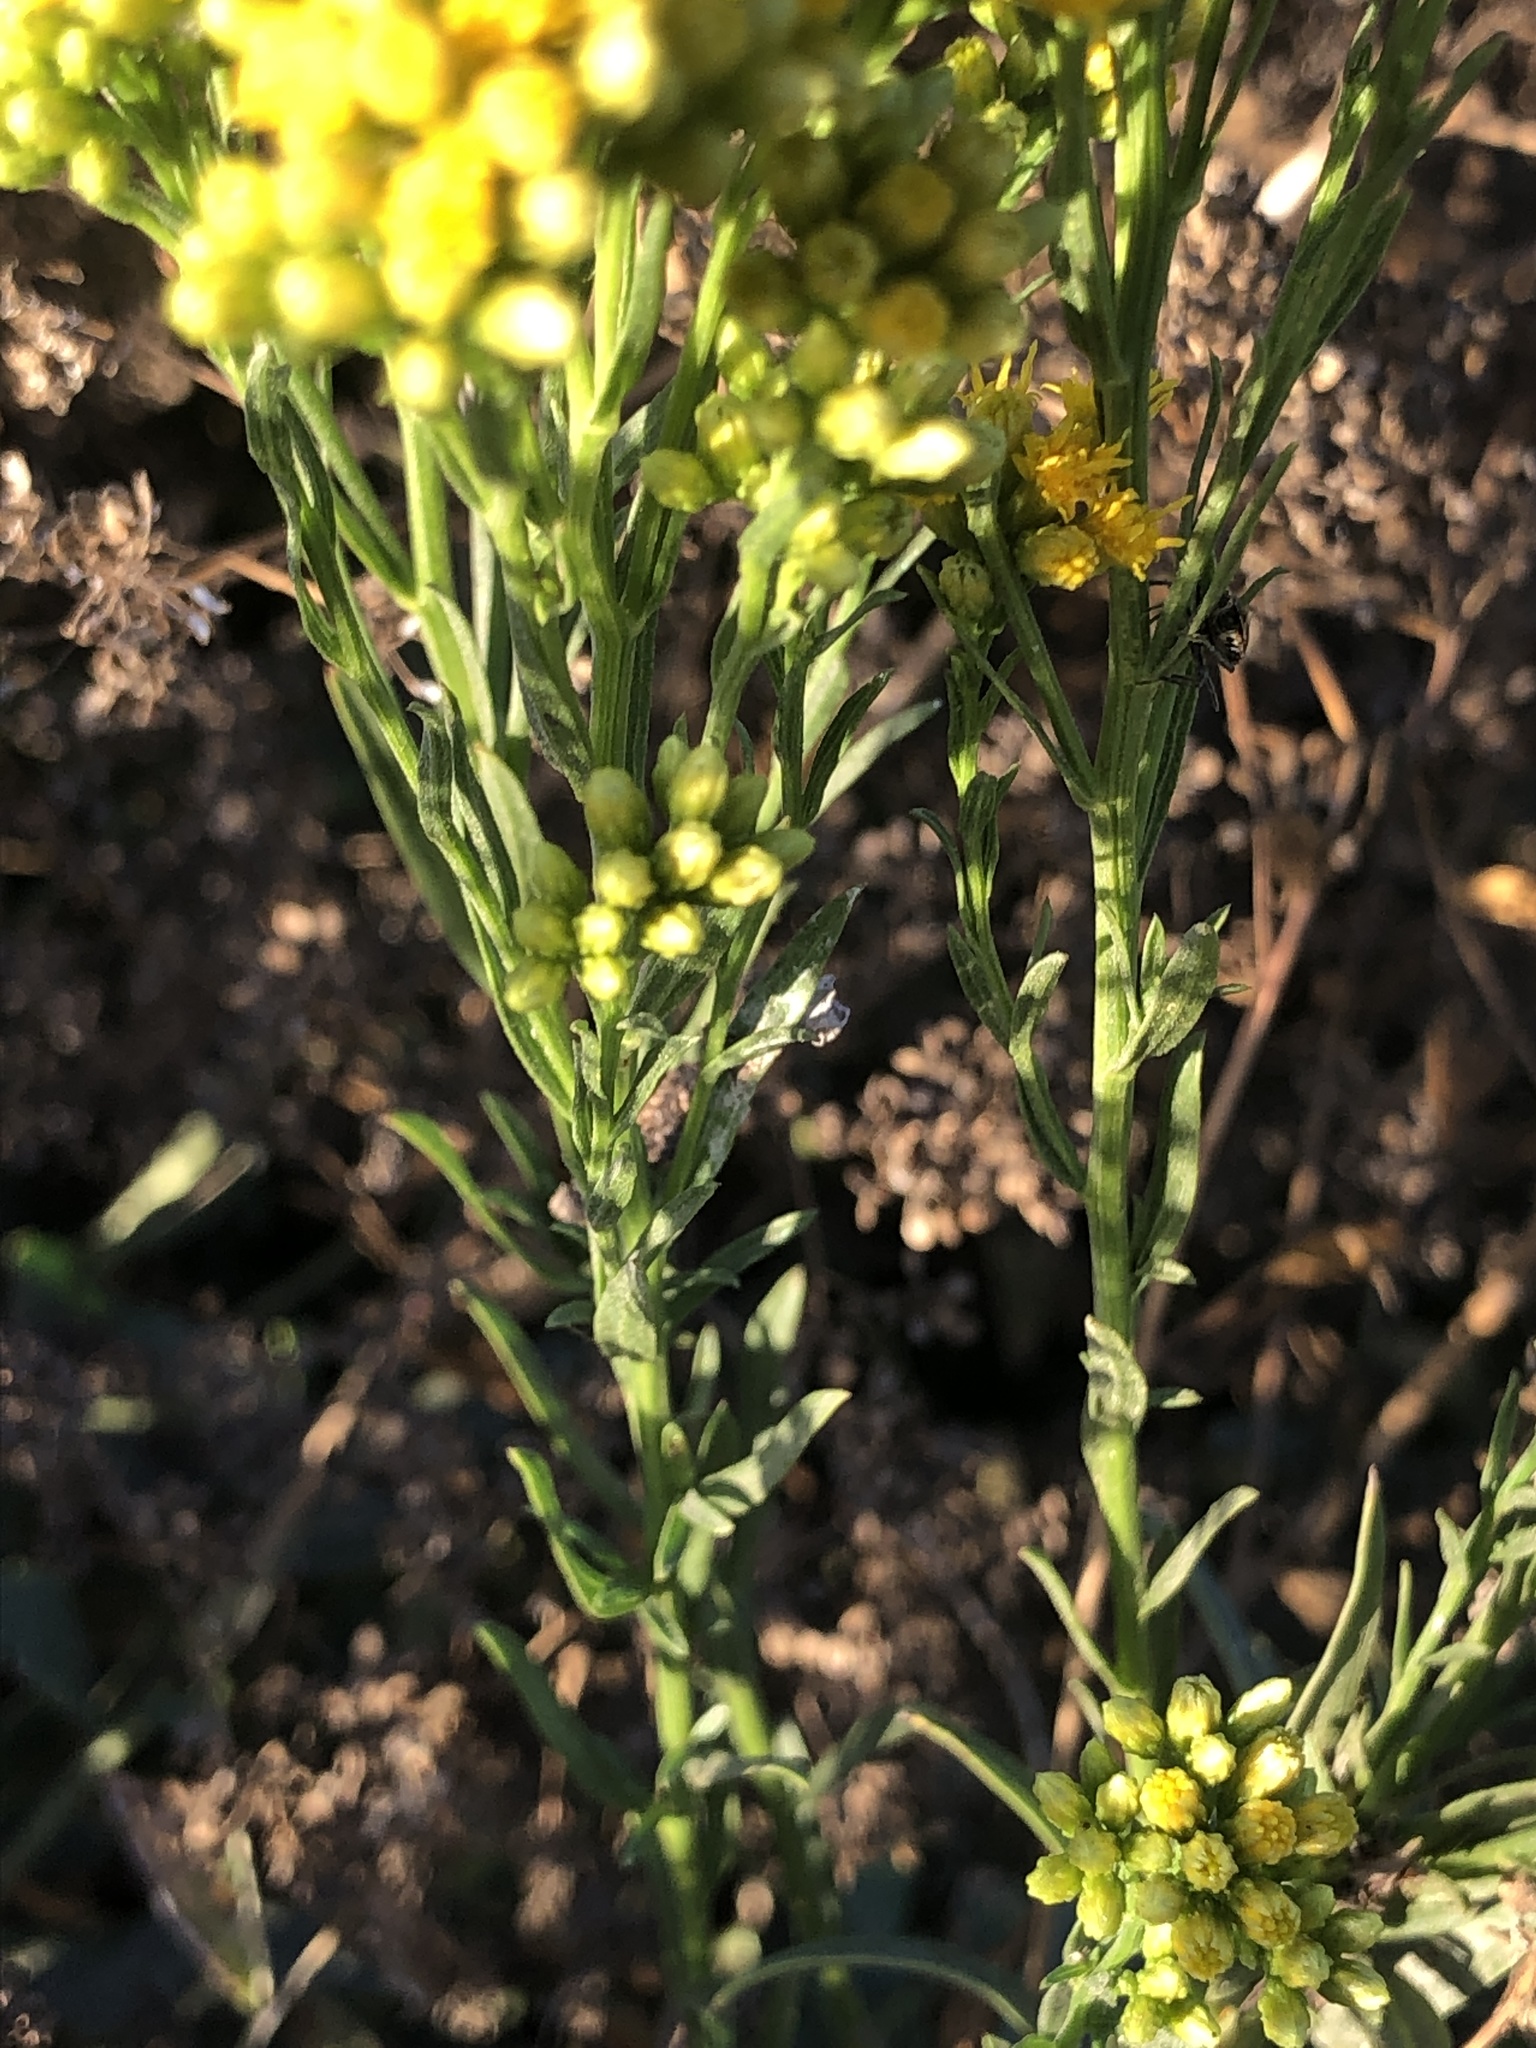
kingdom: Plantae
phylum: Tracheophyta
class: Magnoliopsida
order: Asterales
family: Asteraceae
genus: Euthamia
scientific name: Euthamia occidentalis
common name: Western goldentop
